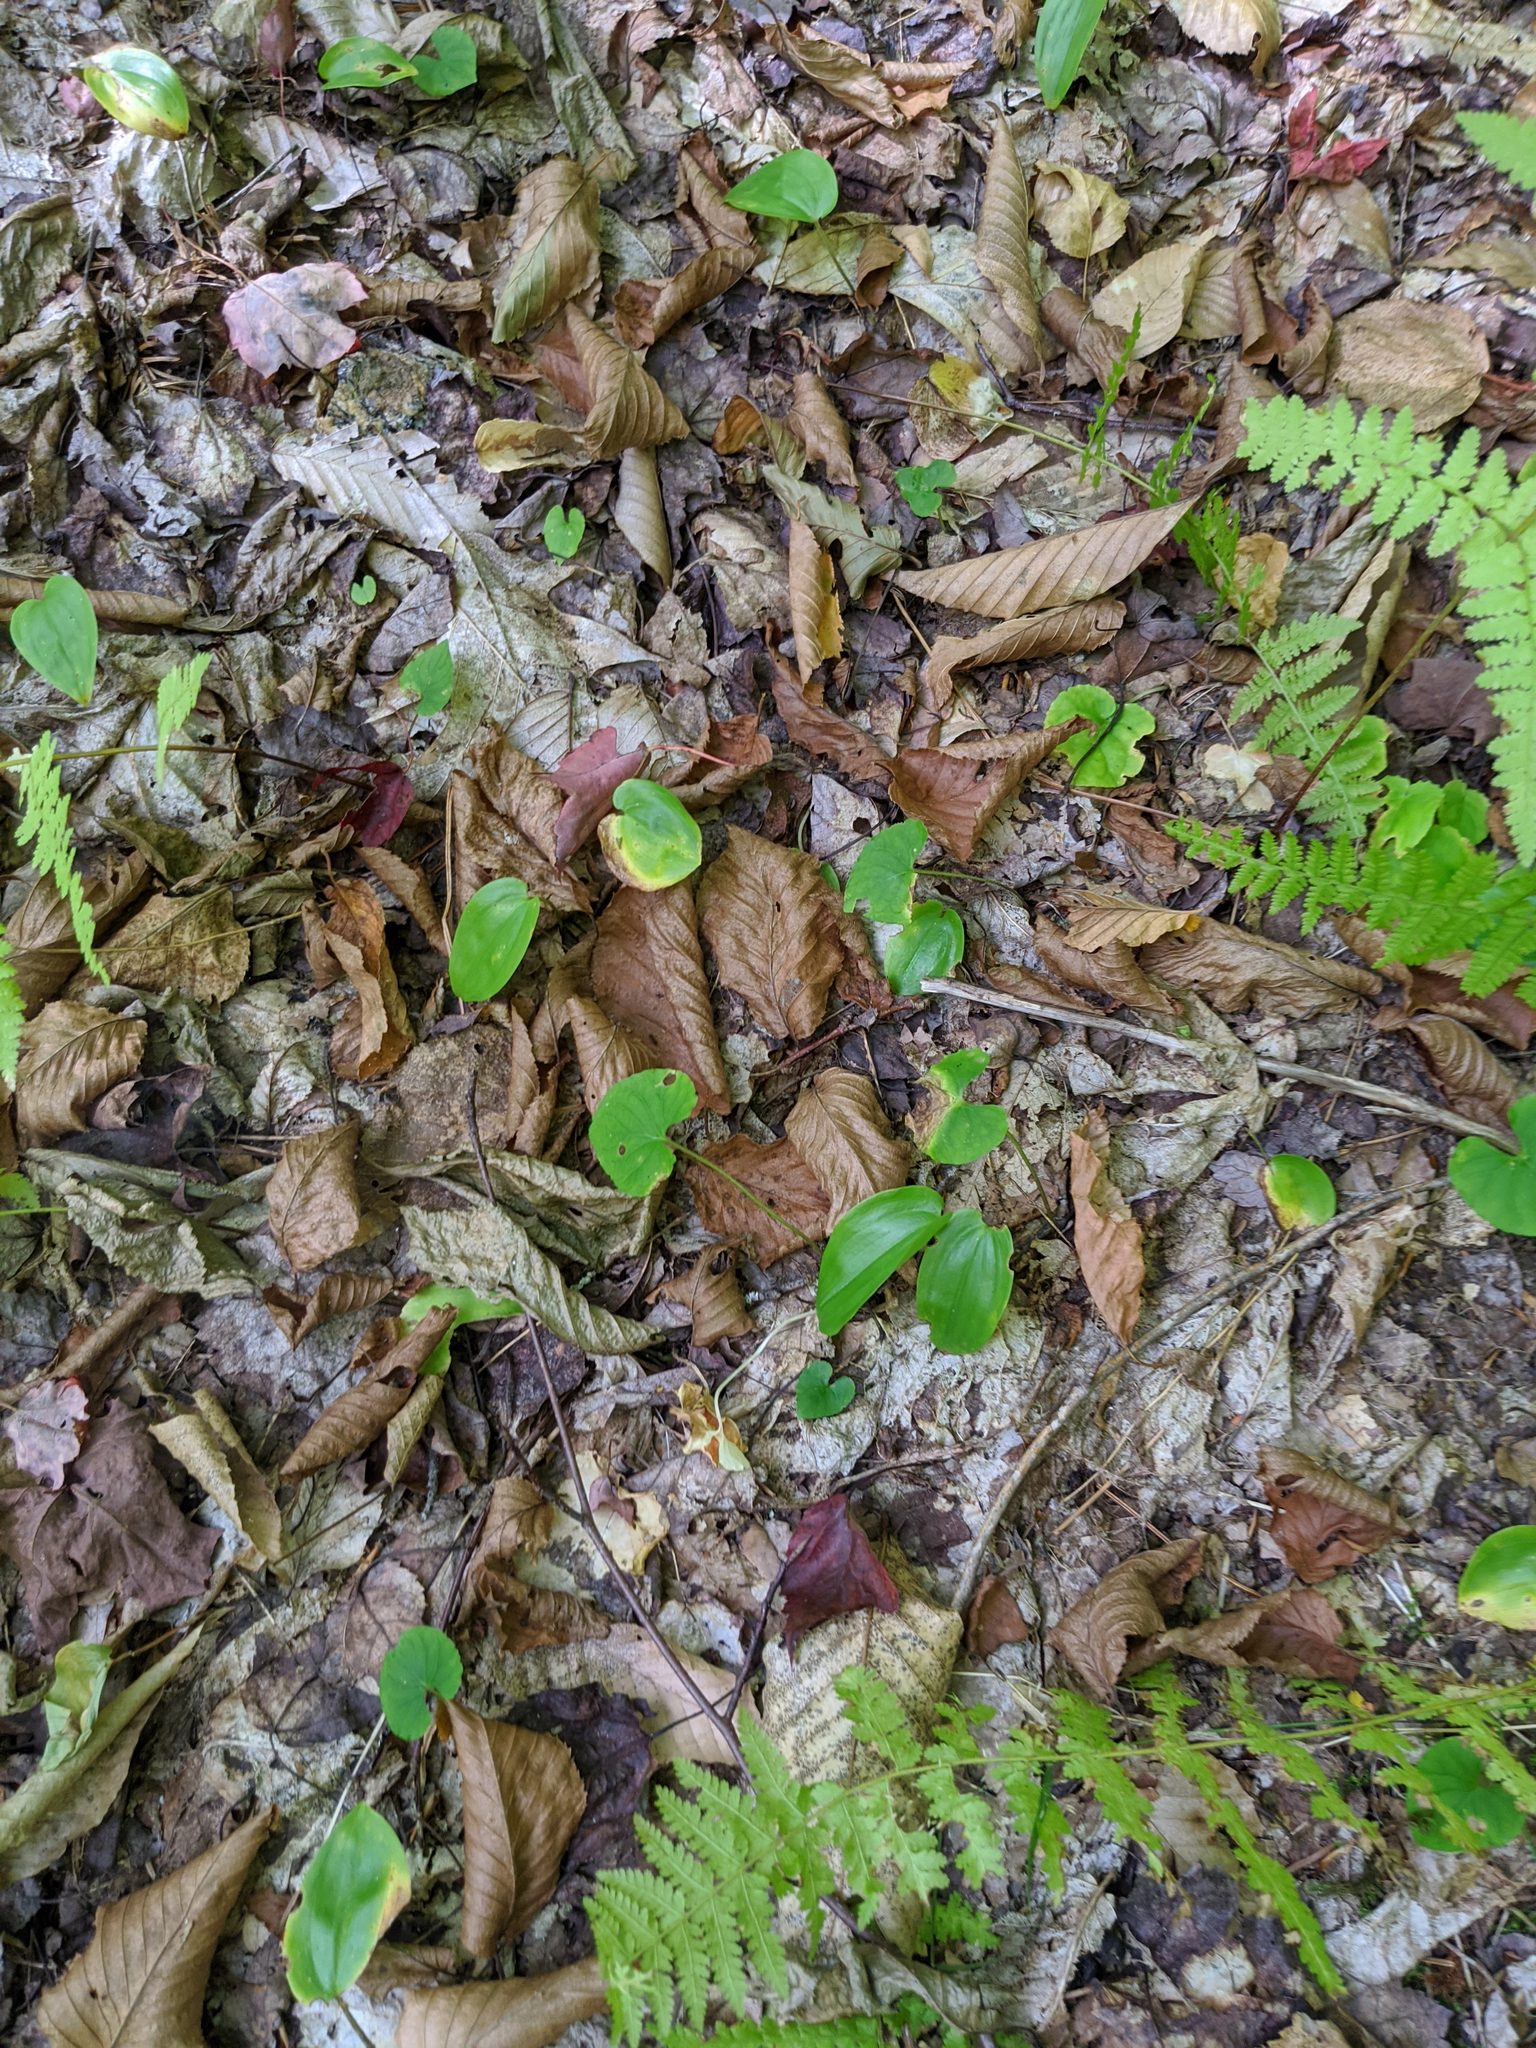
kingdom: Plantae
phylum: Tracheophyta
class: Liliopsida
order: Asparagales
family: Asparagaceae
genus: Maianthemum
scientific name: Maianthemum canadense
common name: False lily-of-the-valley
